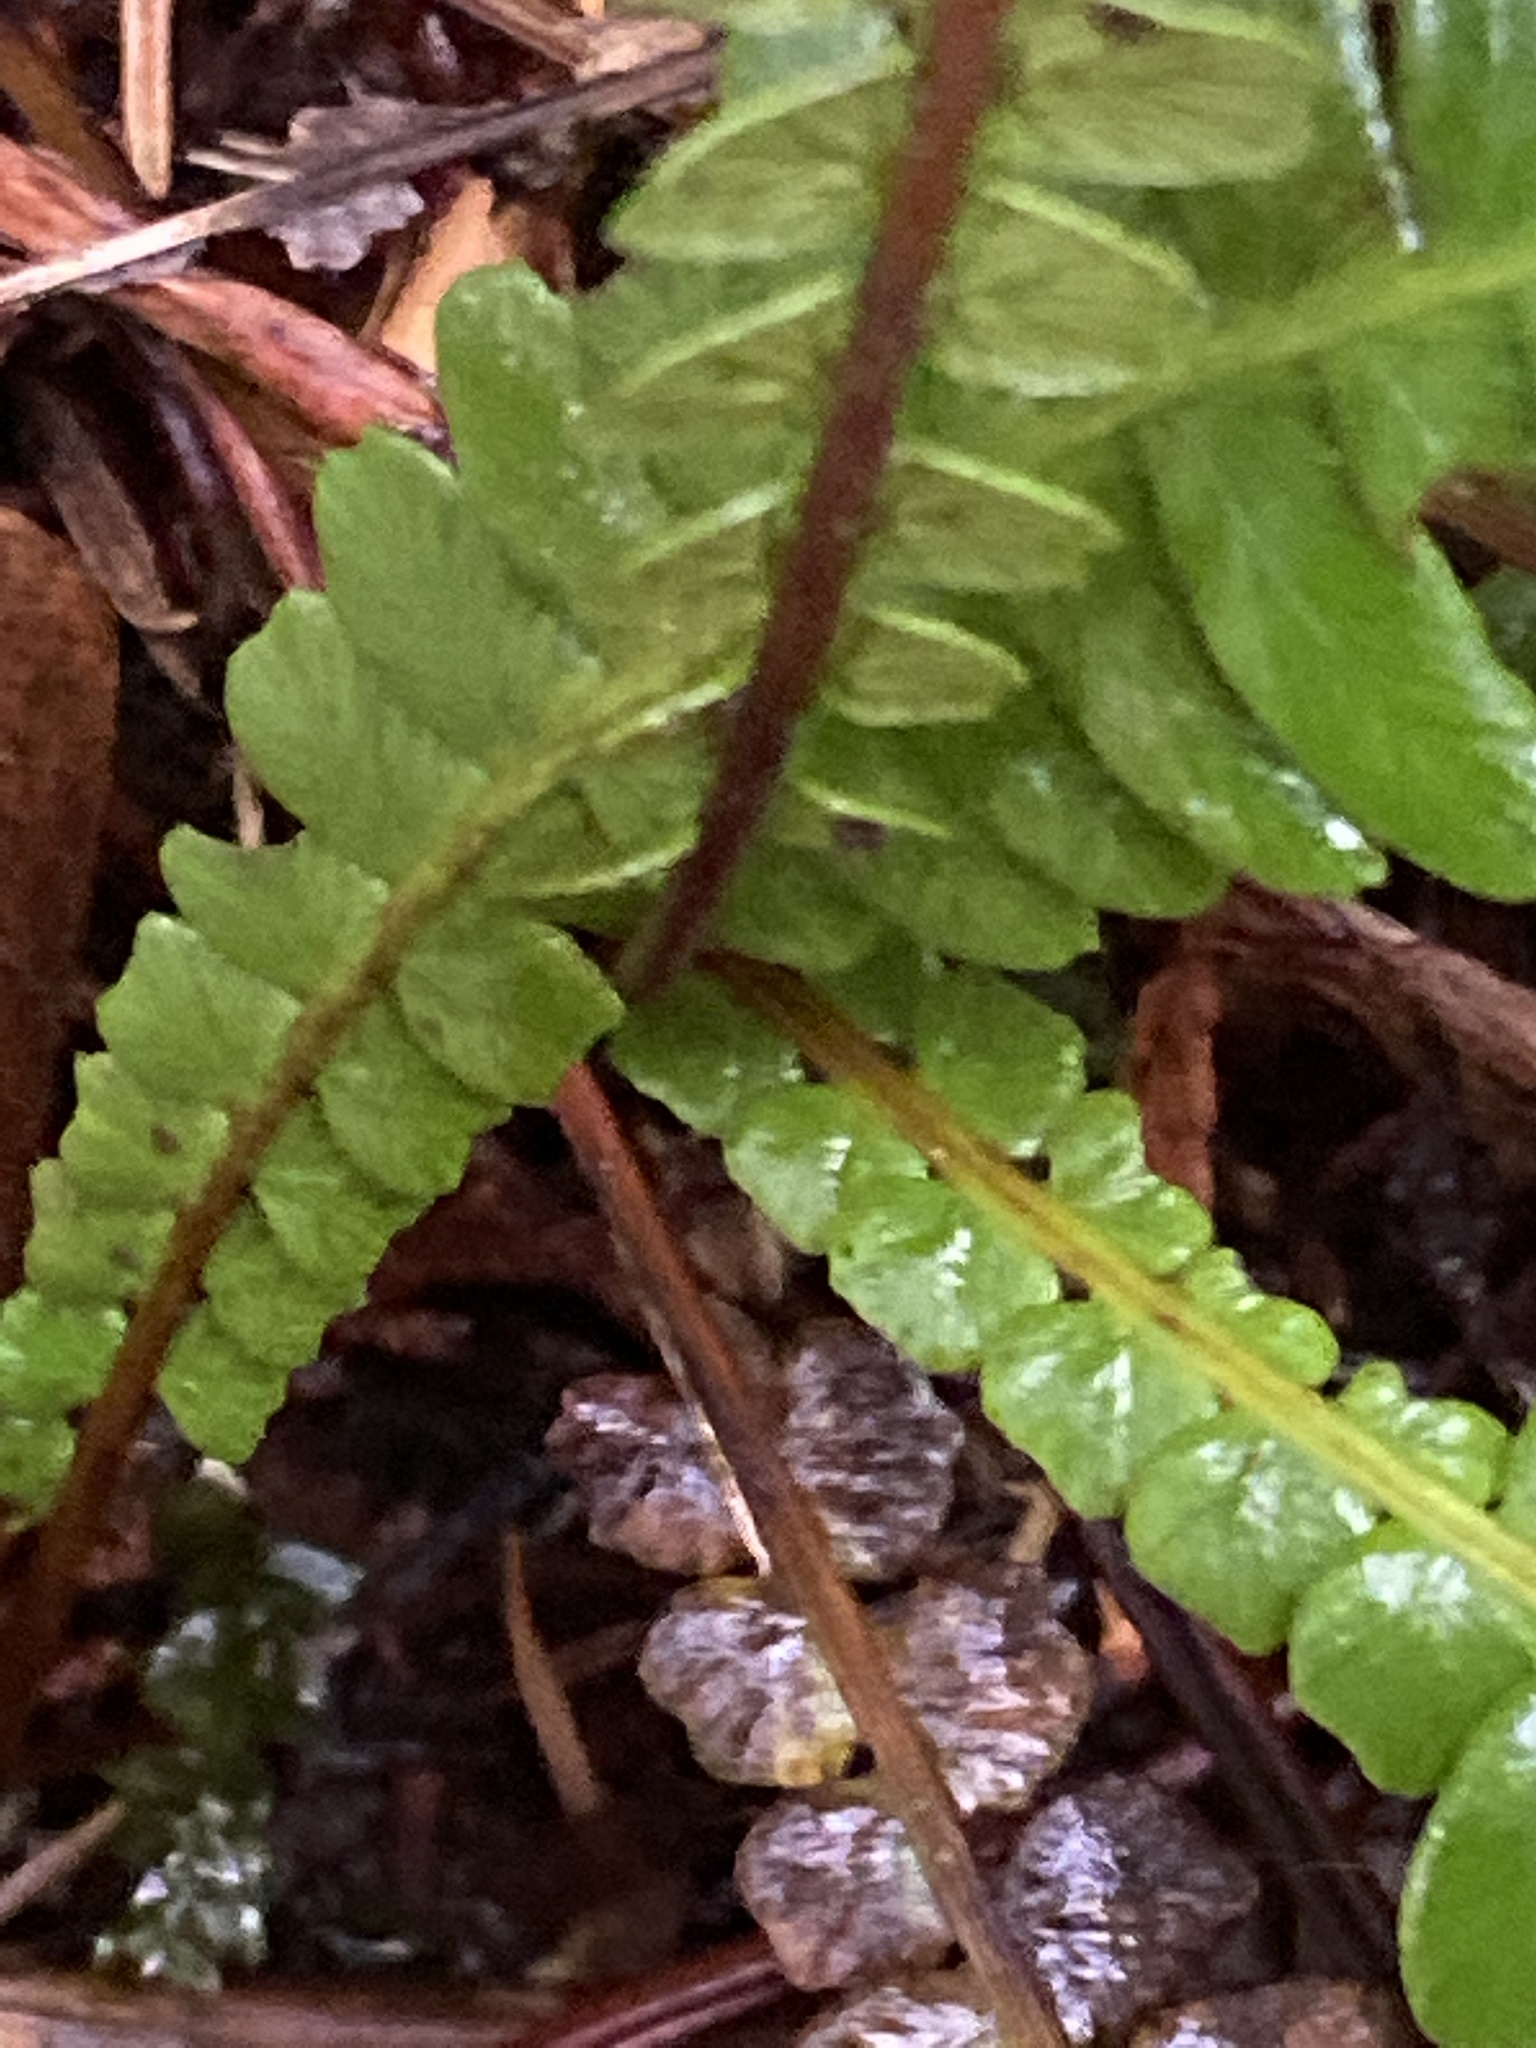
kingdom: Plantae
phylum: Tracheophyta
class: Polypodiopsida
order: Polypodiales
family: Blechnaceae
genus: Struthiopteris
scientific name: Struthiopteris spicant
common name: Deer fern
